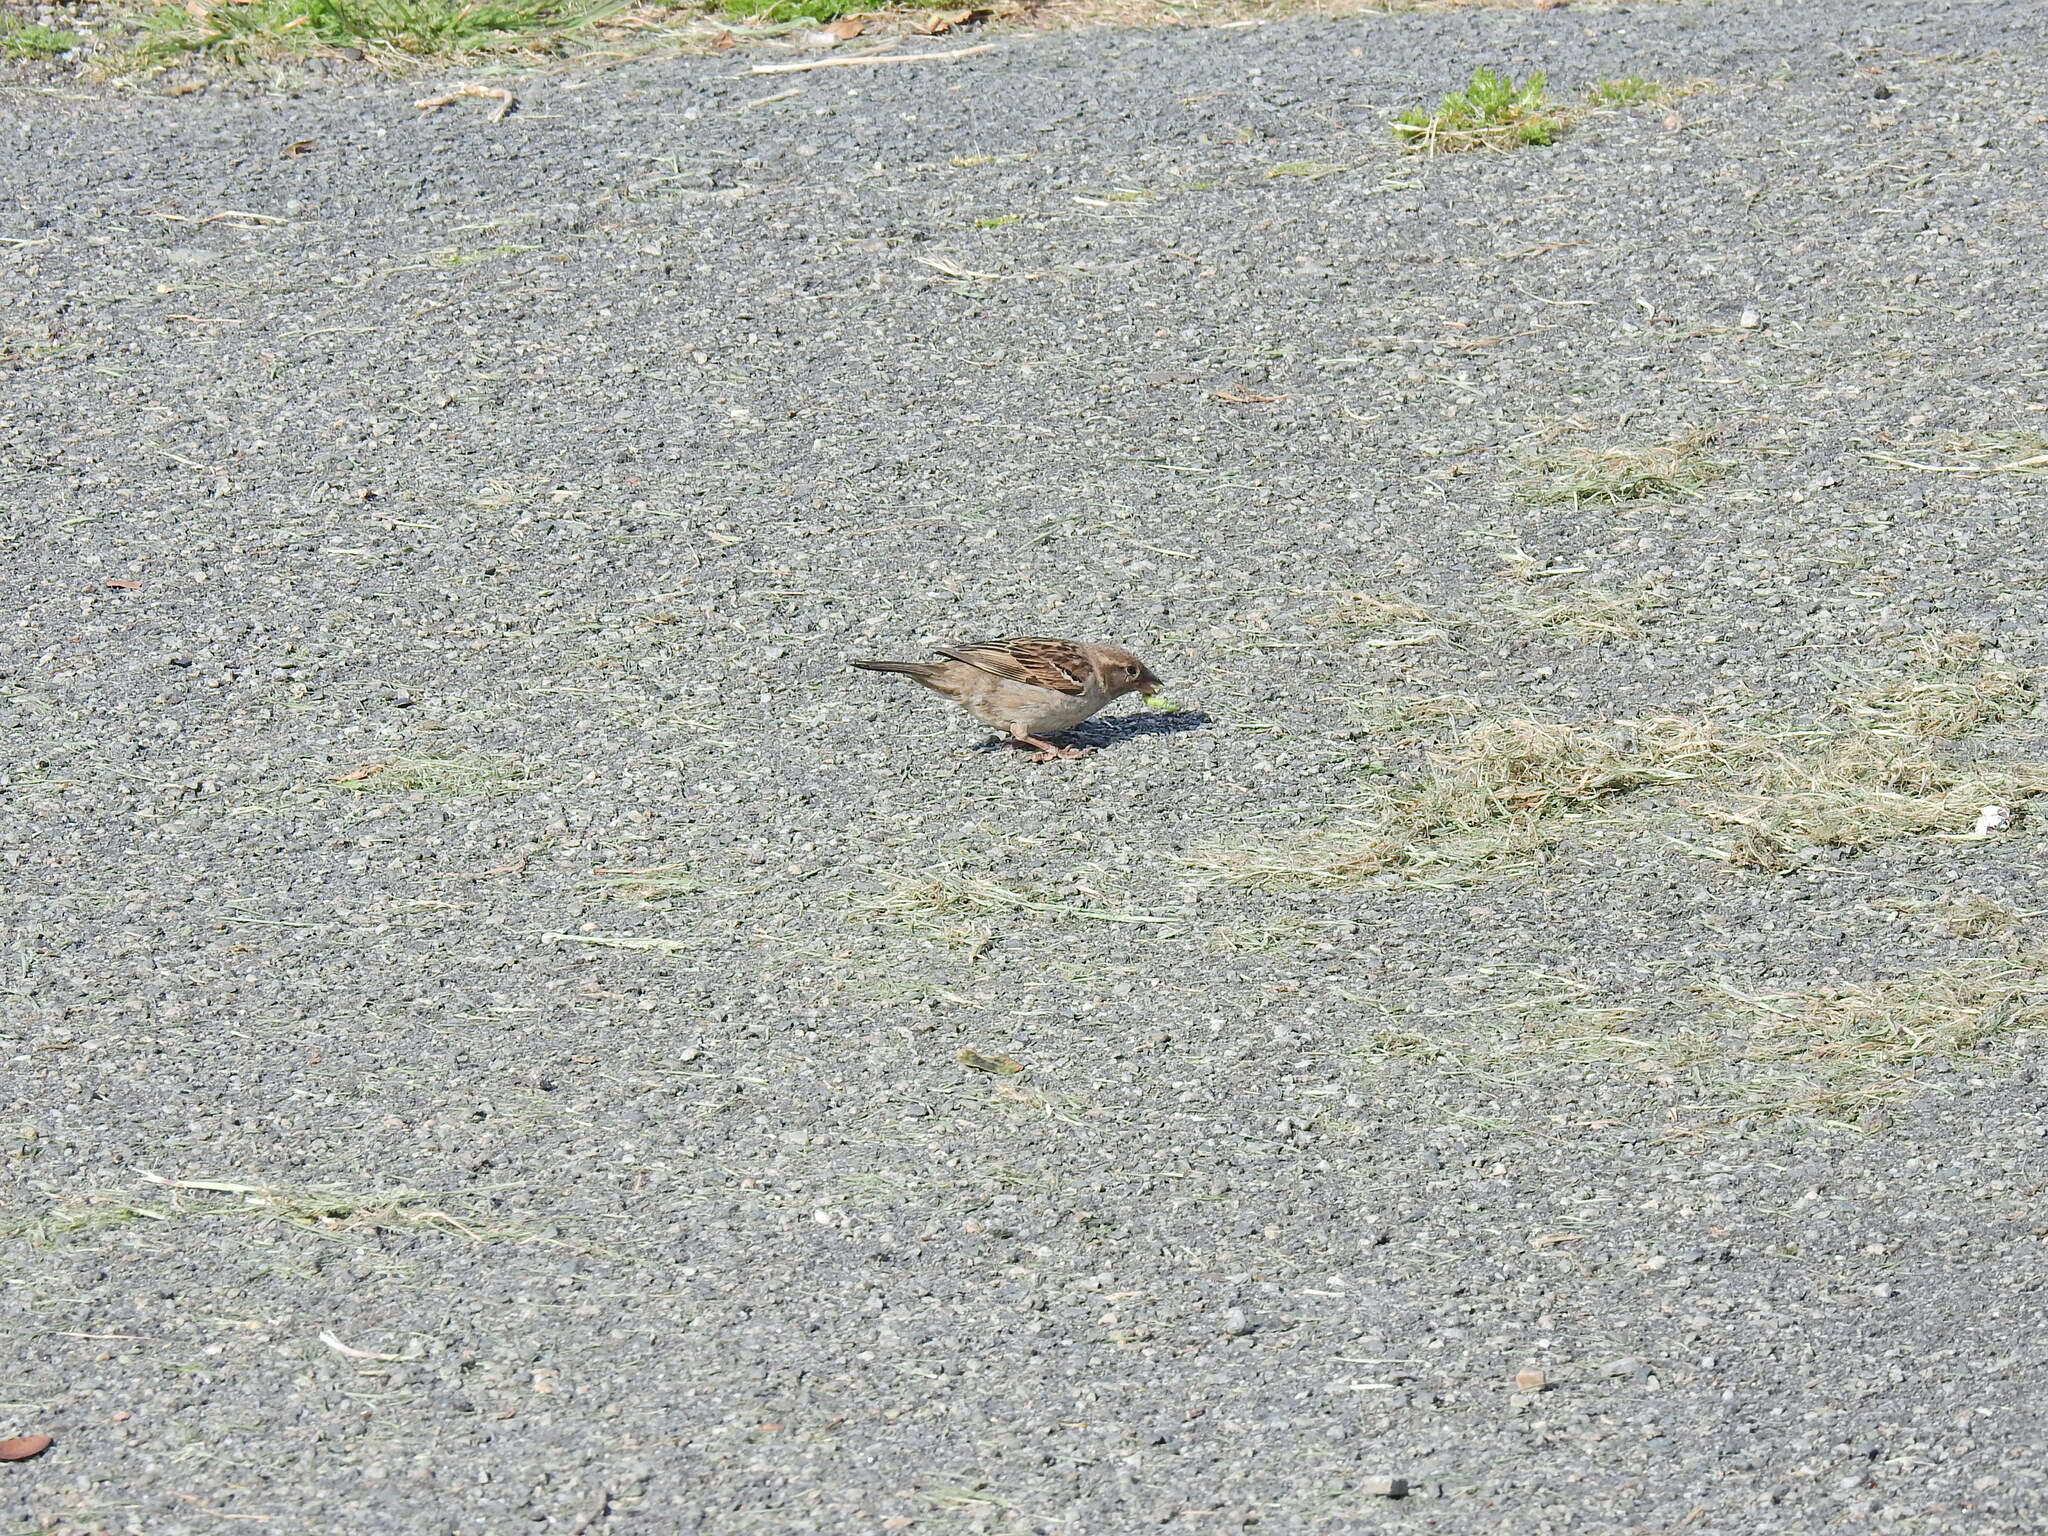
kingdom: Animalia
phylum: Chordata
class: Aves
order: Passeriformes
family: Passeridae
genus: Passer
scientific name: Passer domesticus
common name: House sparrow
